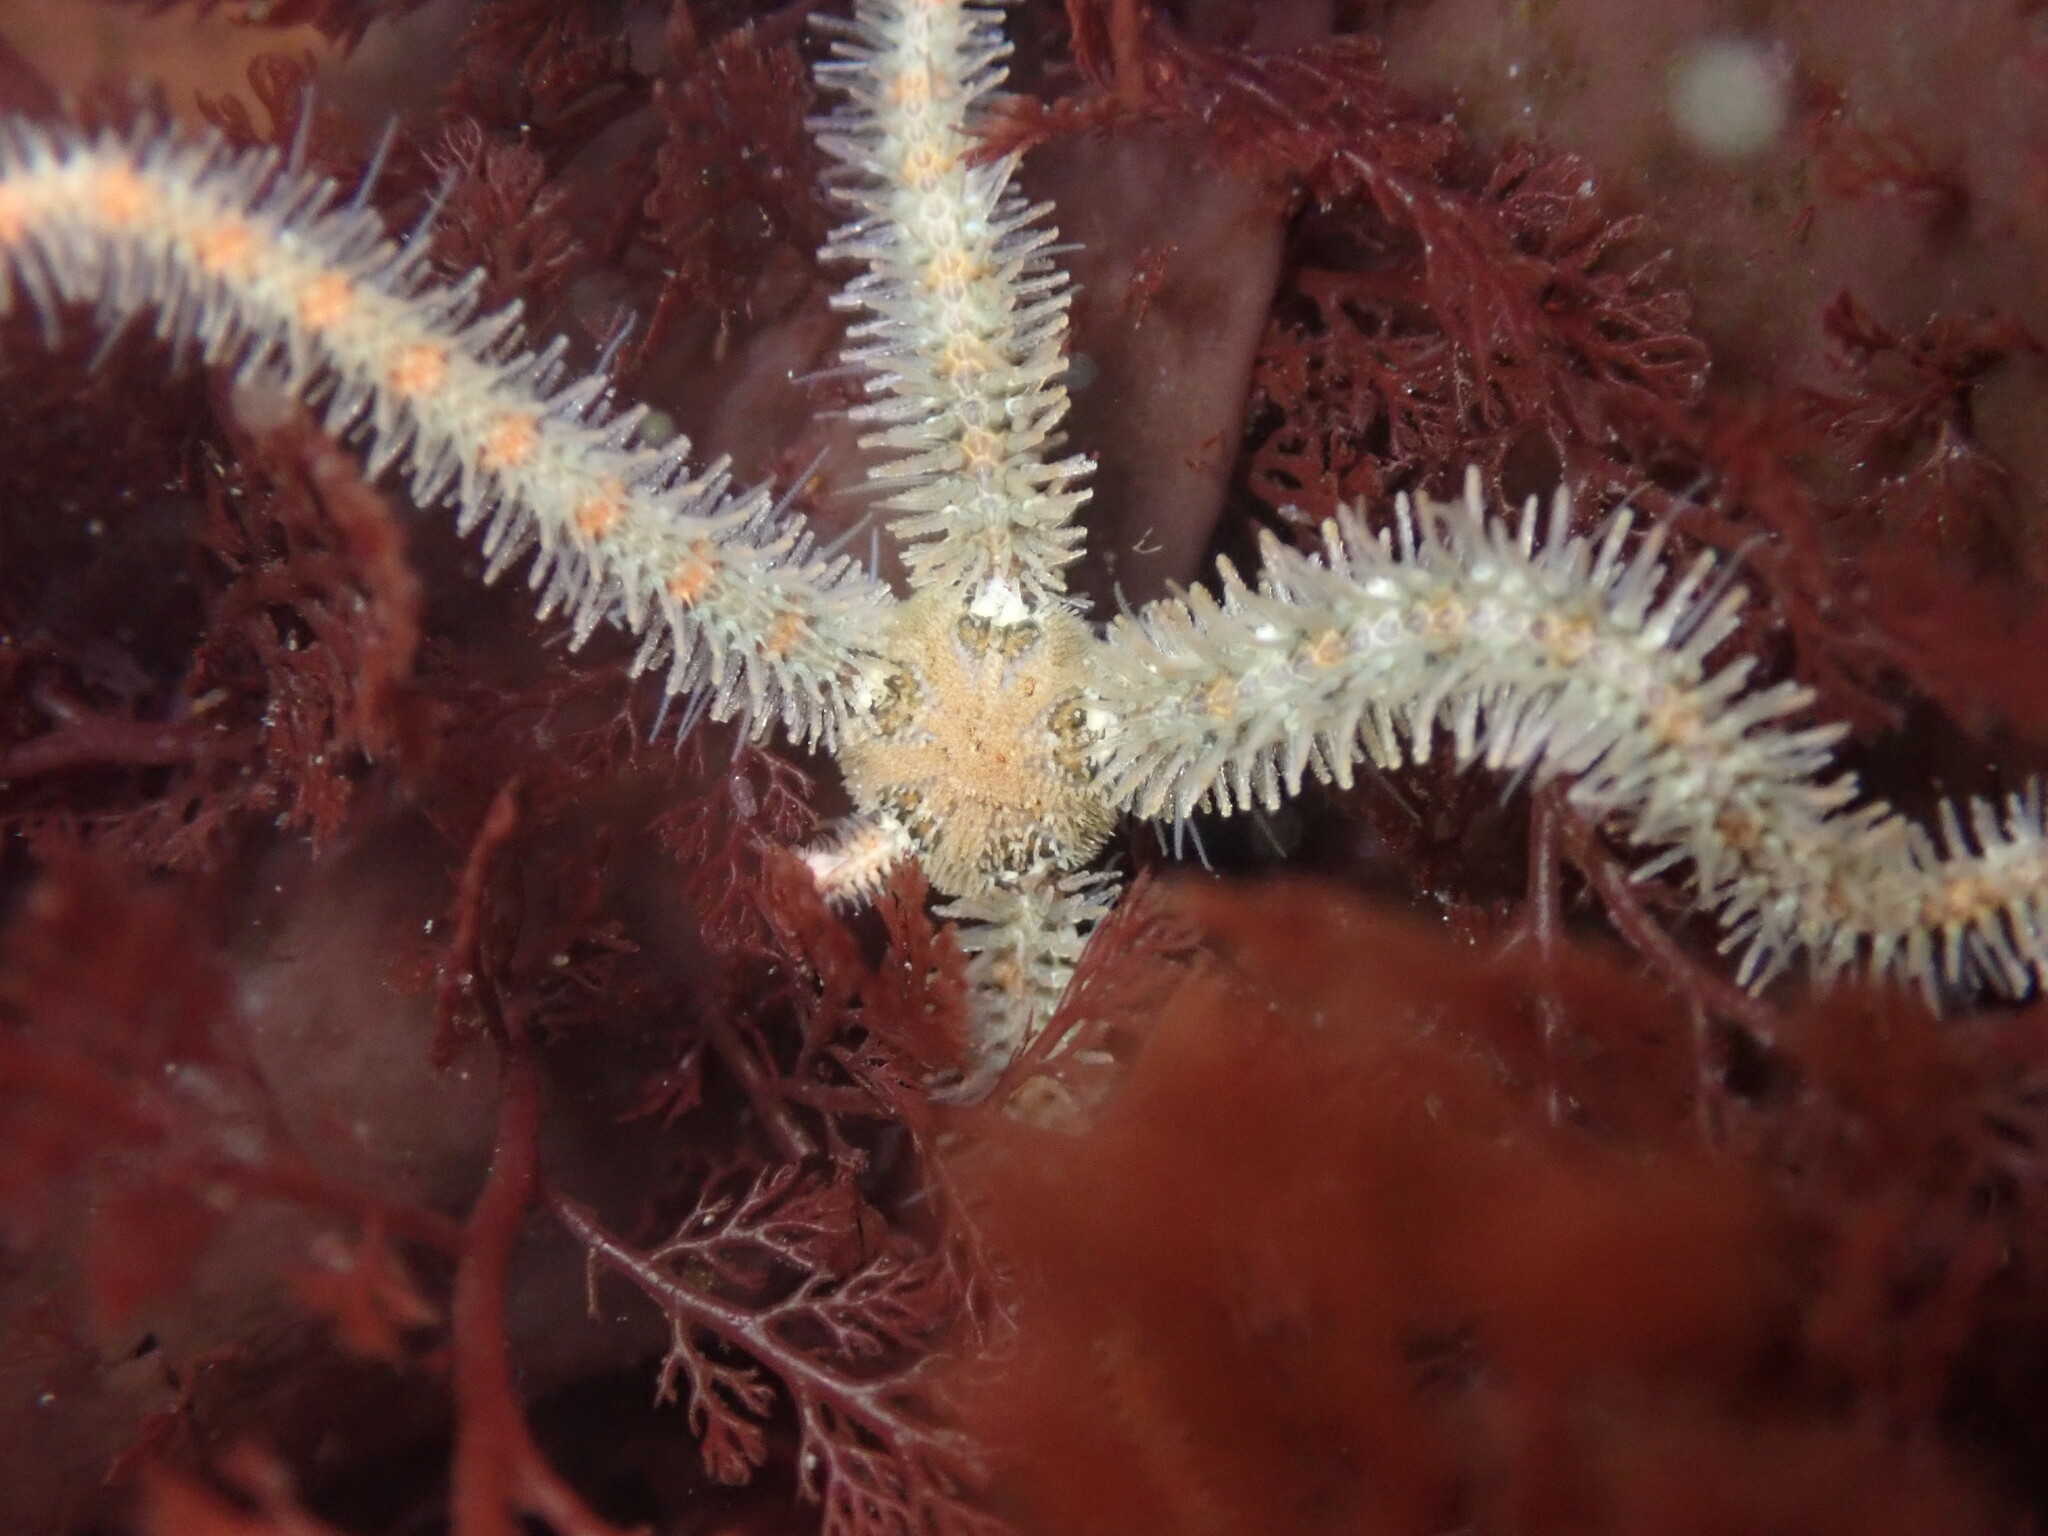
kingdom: Animalia
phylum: Echinodermata
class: Ophiuroidea
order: Amphilepidida
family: Ophiotrichidae
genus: Ophiothrix
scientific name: Ophiothrix spiculata
